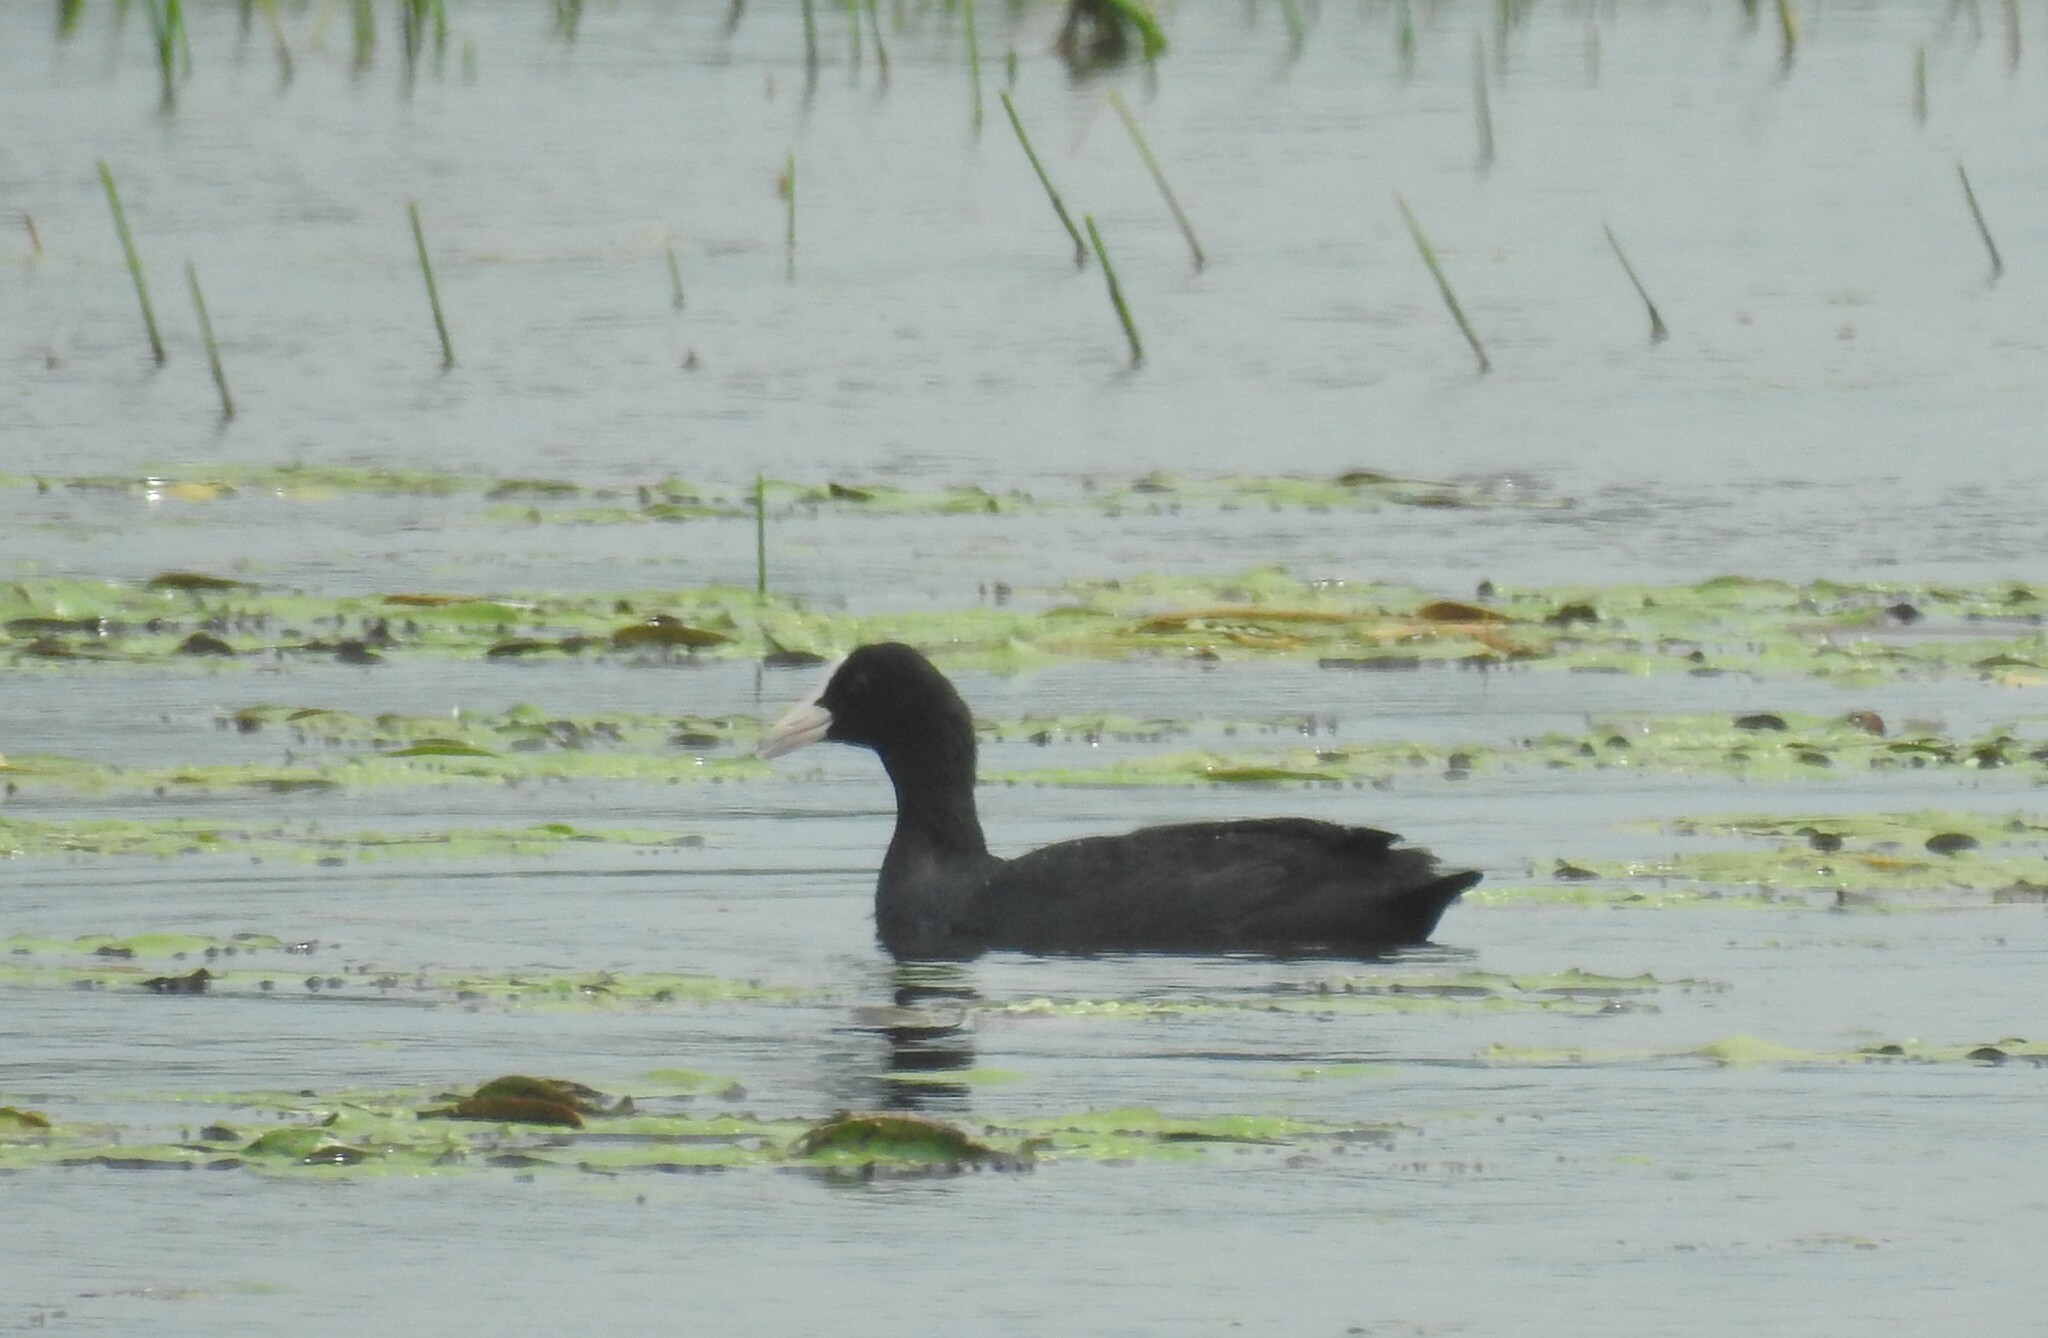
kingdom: Animalia
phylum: Chordata
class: Aves
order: Gruiformes
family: Rallidae
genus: Fulica
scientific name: Fulica atra
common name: Eurasian coot
